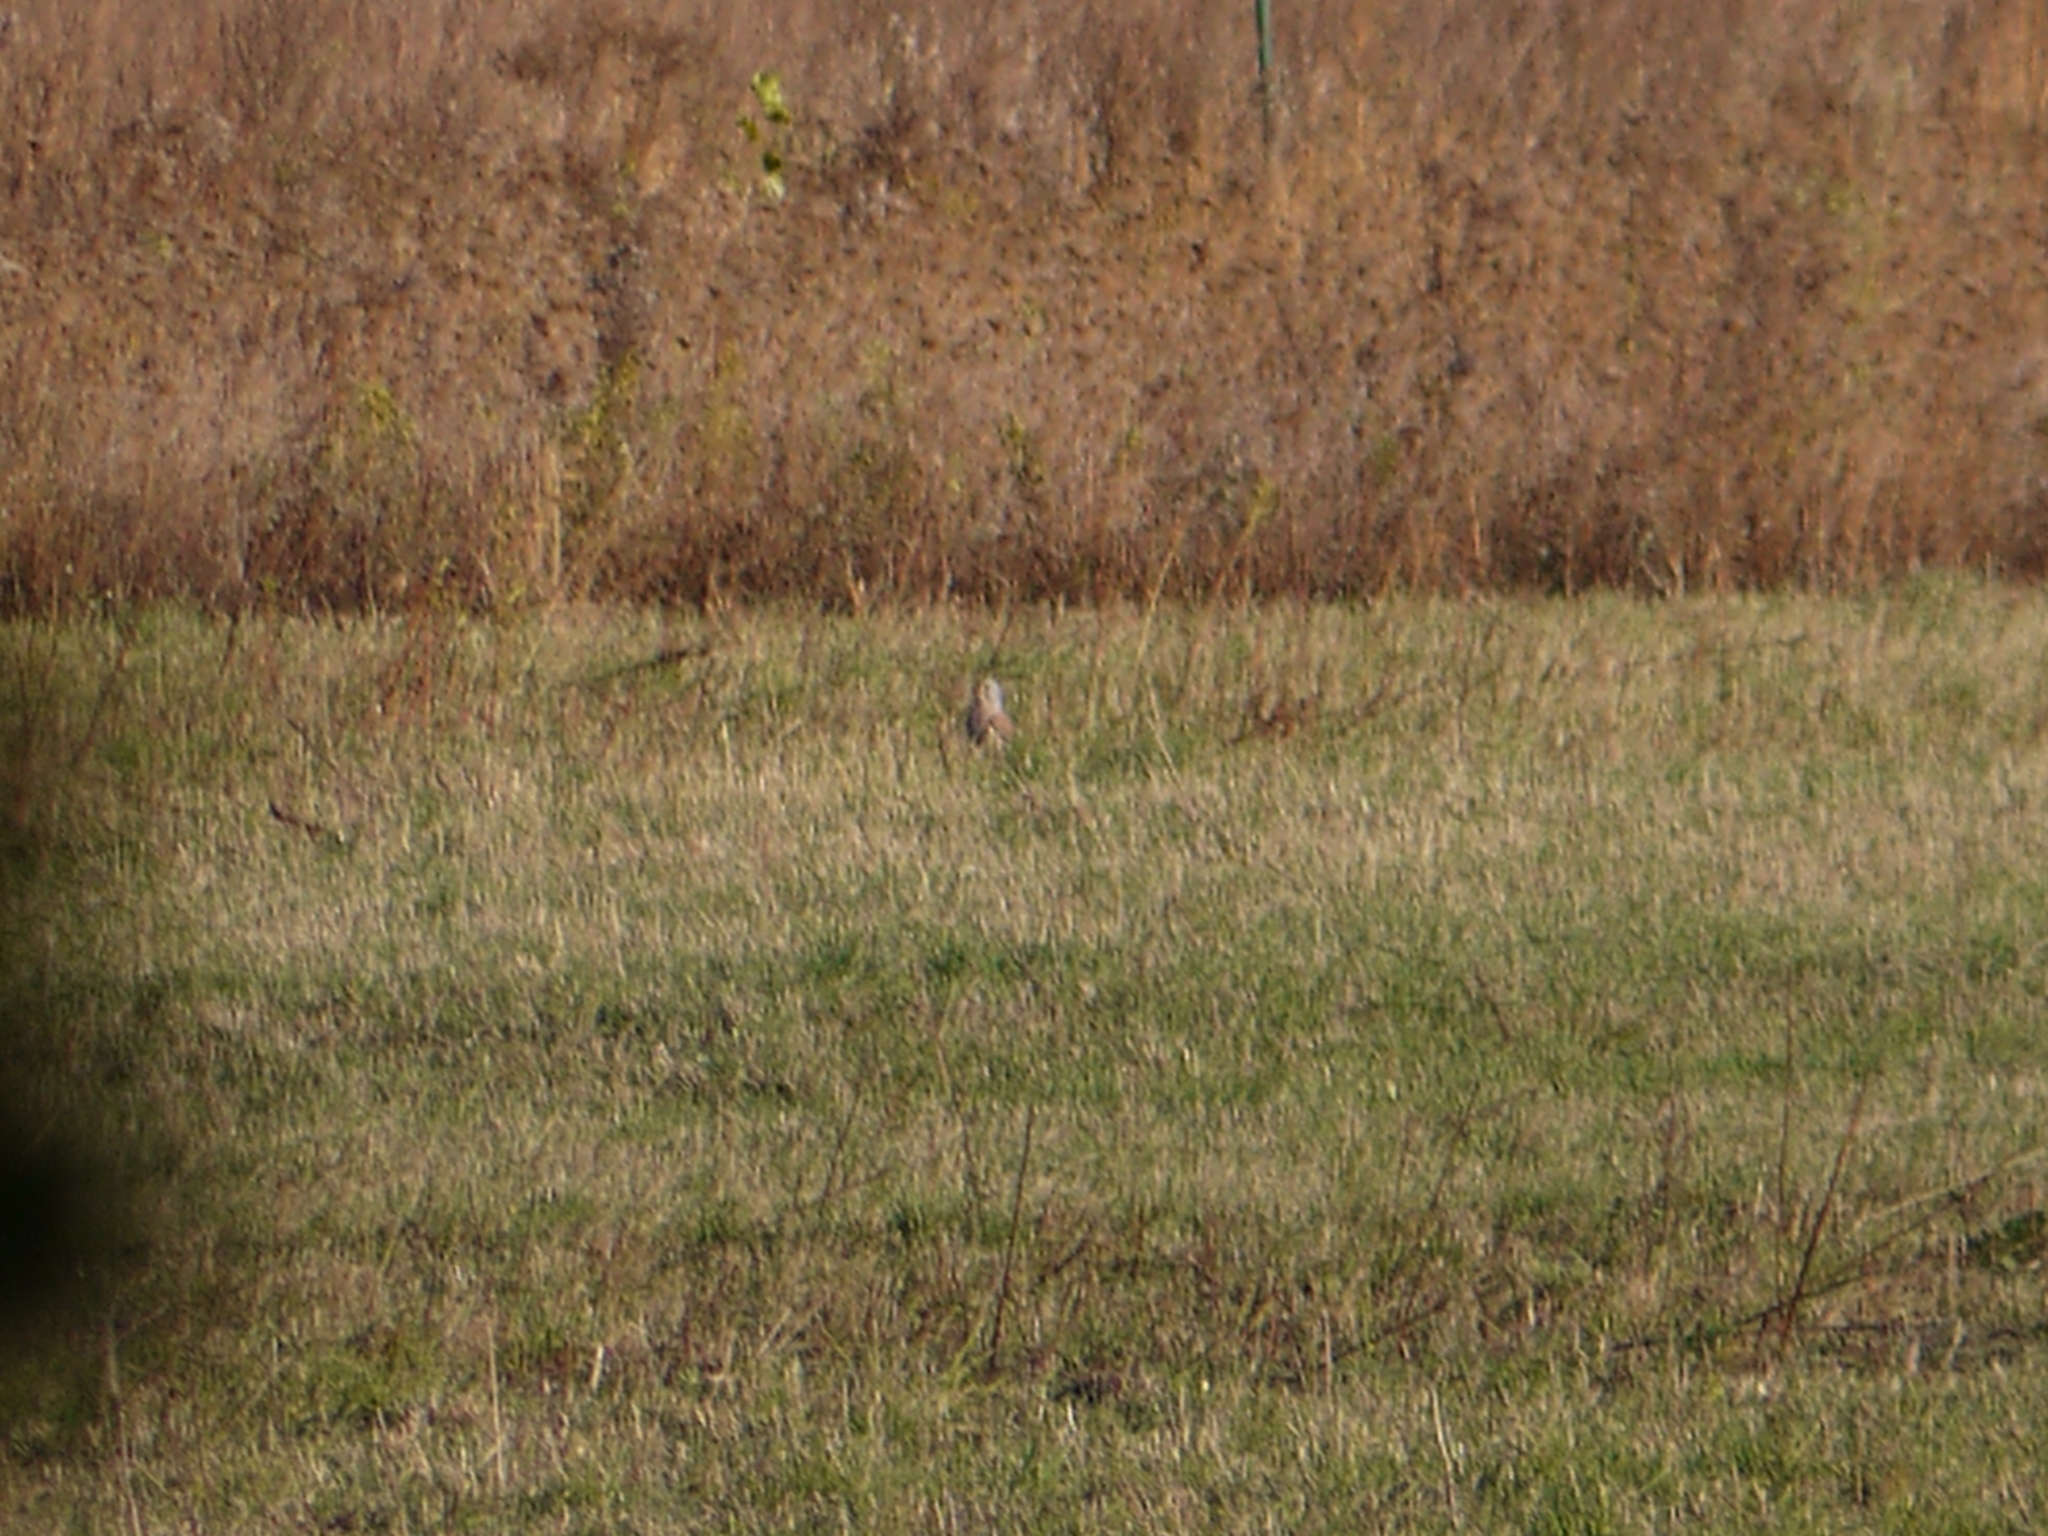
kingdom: Animalia
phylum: Chordata
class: Aves
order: Falconiformes
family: Falconidae
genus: Falco
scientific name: Falco tinnunculus
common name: Common kestrel
